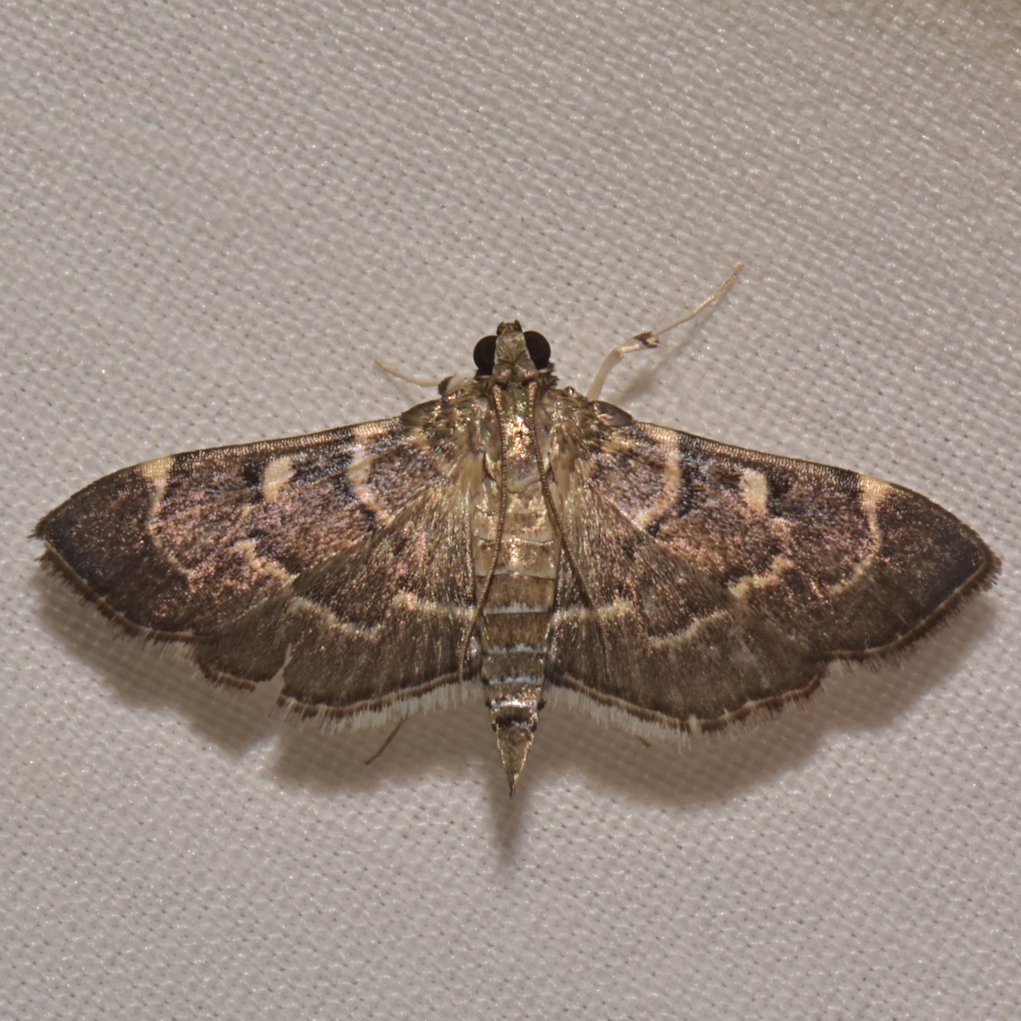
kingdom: Animalia
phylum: Arthropoda
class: Insecta
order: Lepidoptera
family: Crambidae
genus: Cryptobotys
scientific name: Cryptobotys zoilusalis
